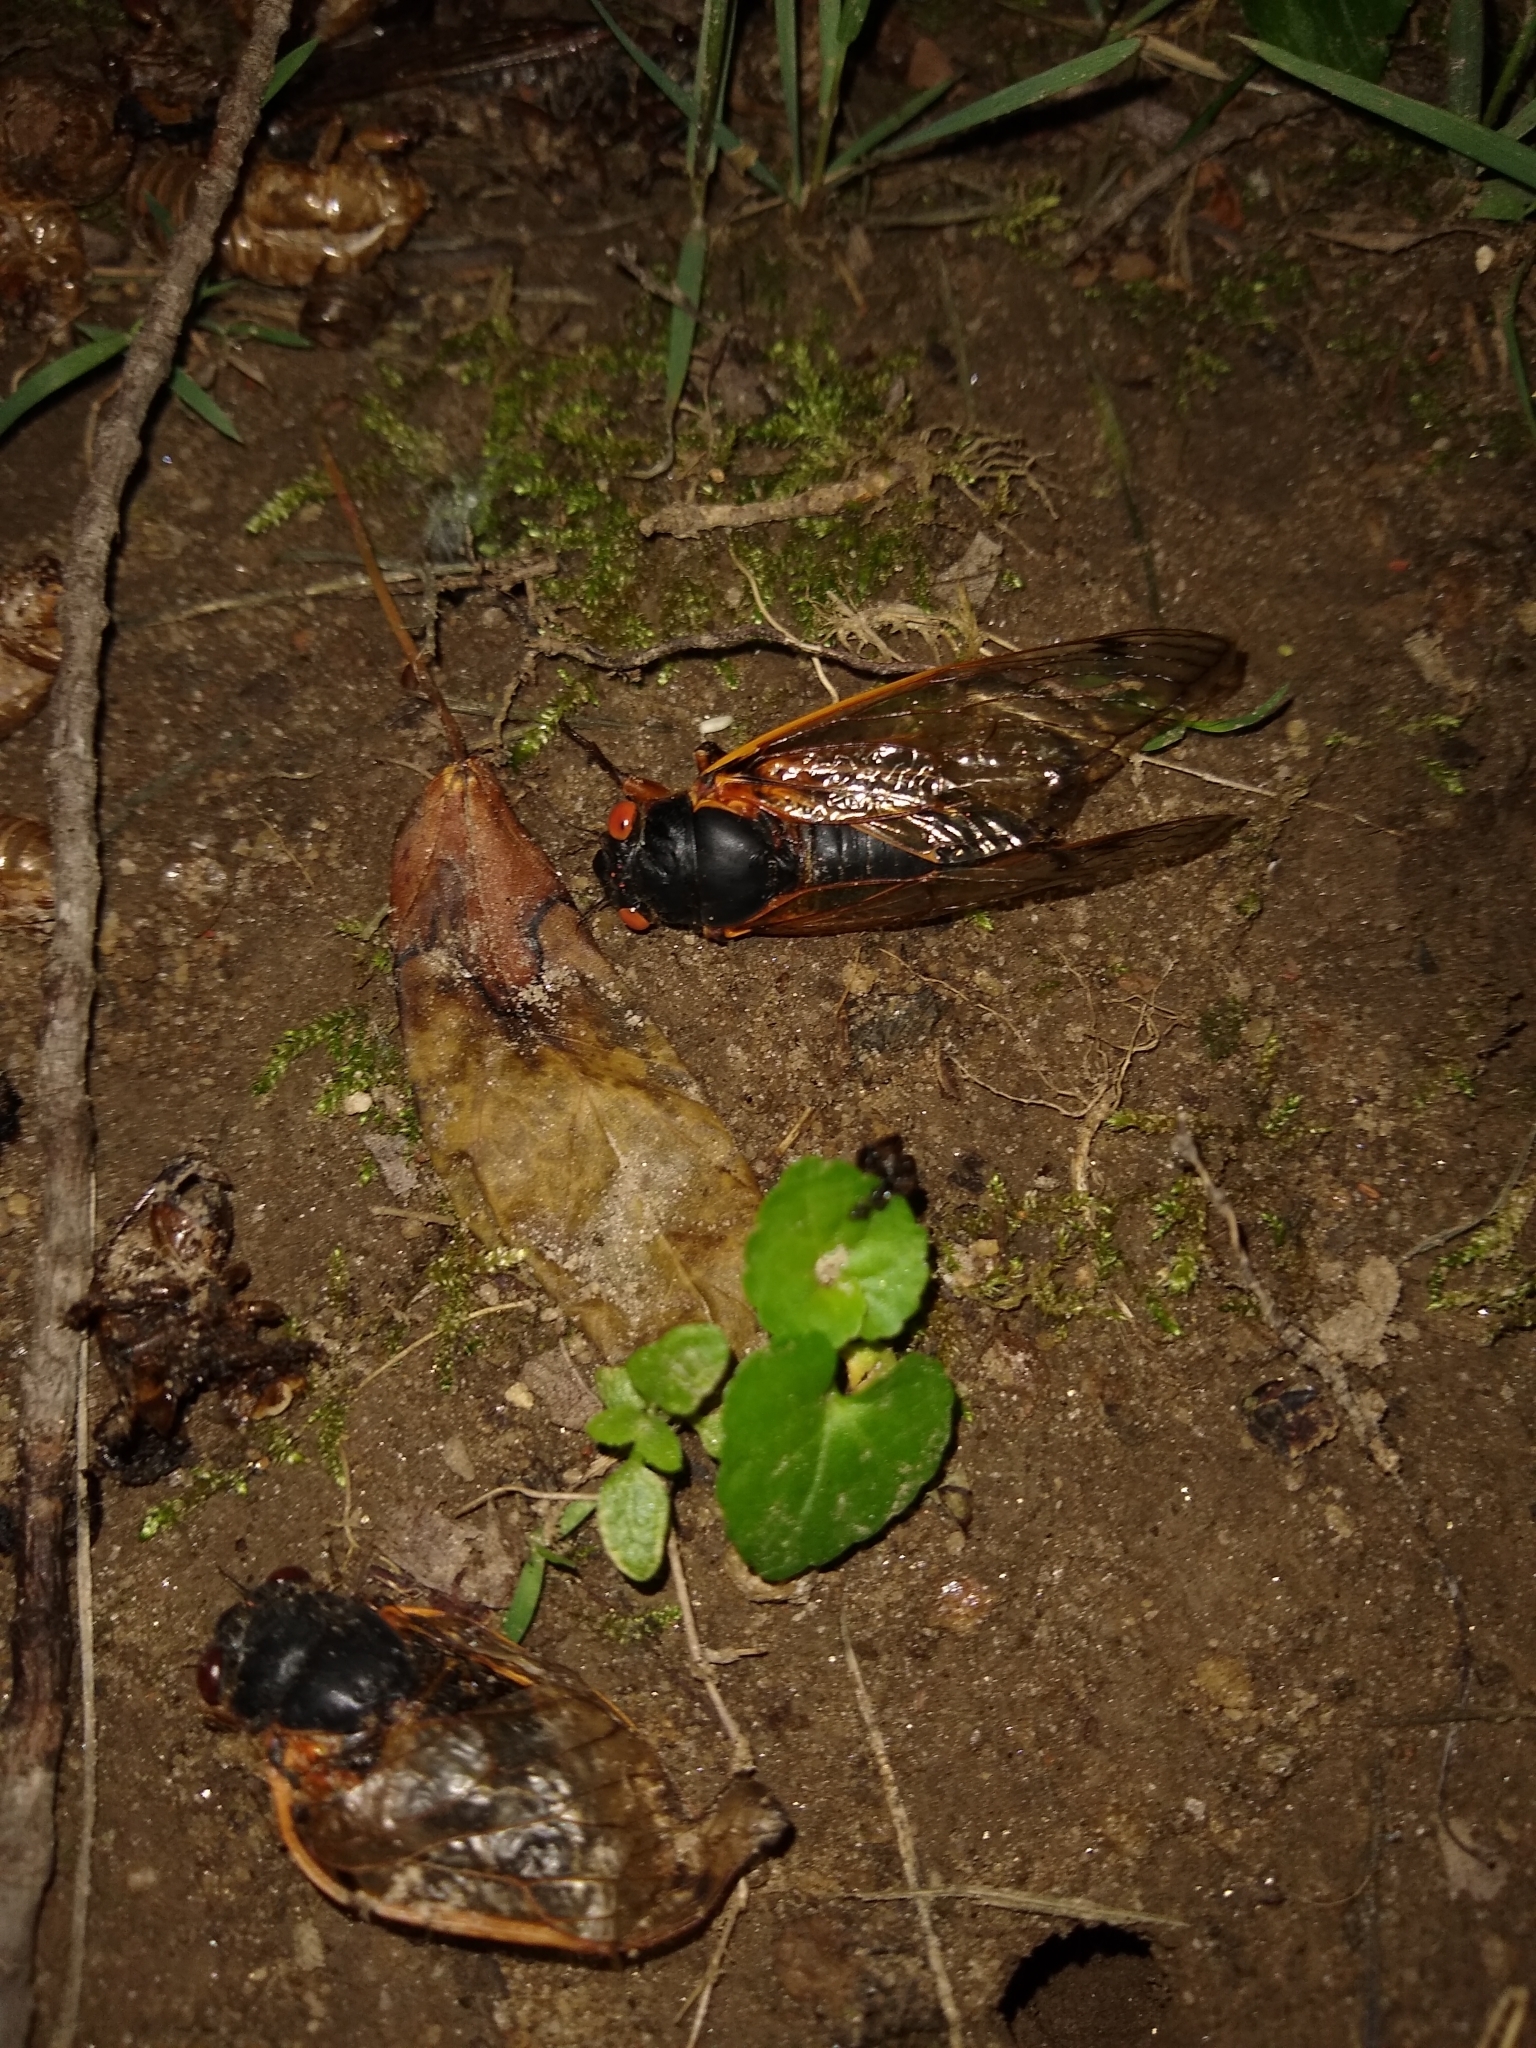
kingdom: Animalia
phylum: Arthropoda
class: Insecta
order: Hemiptera
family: Cicadidae
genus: Magicicada
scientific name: Magicicada septendecim
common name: Periodical cicada
